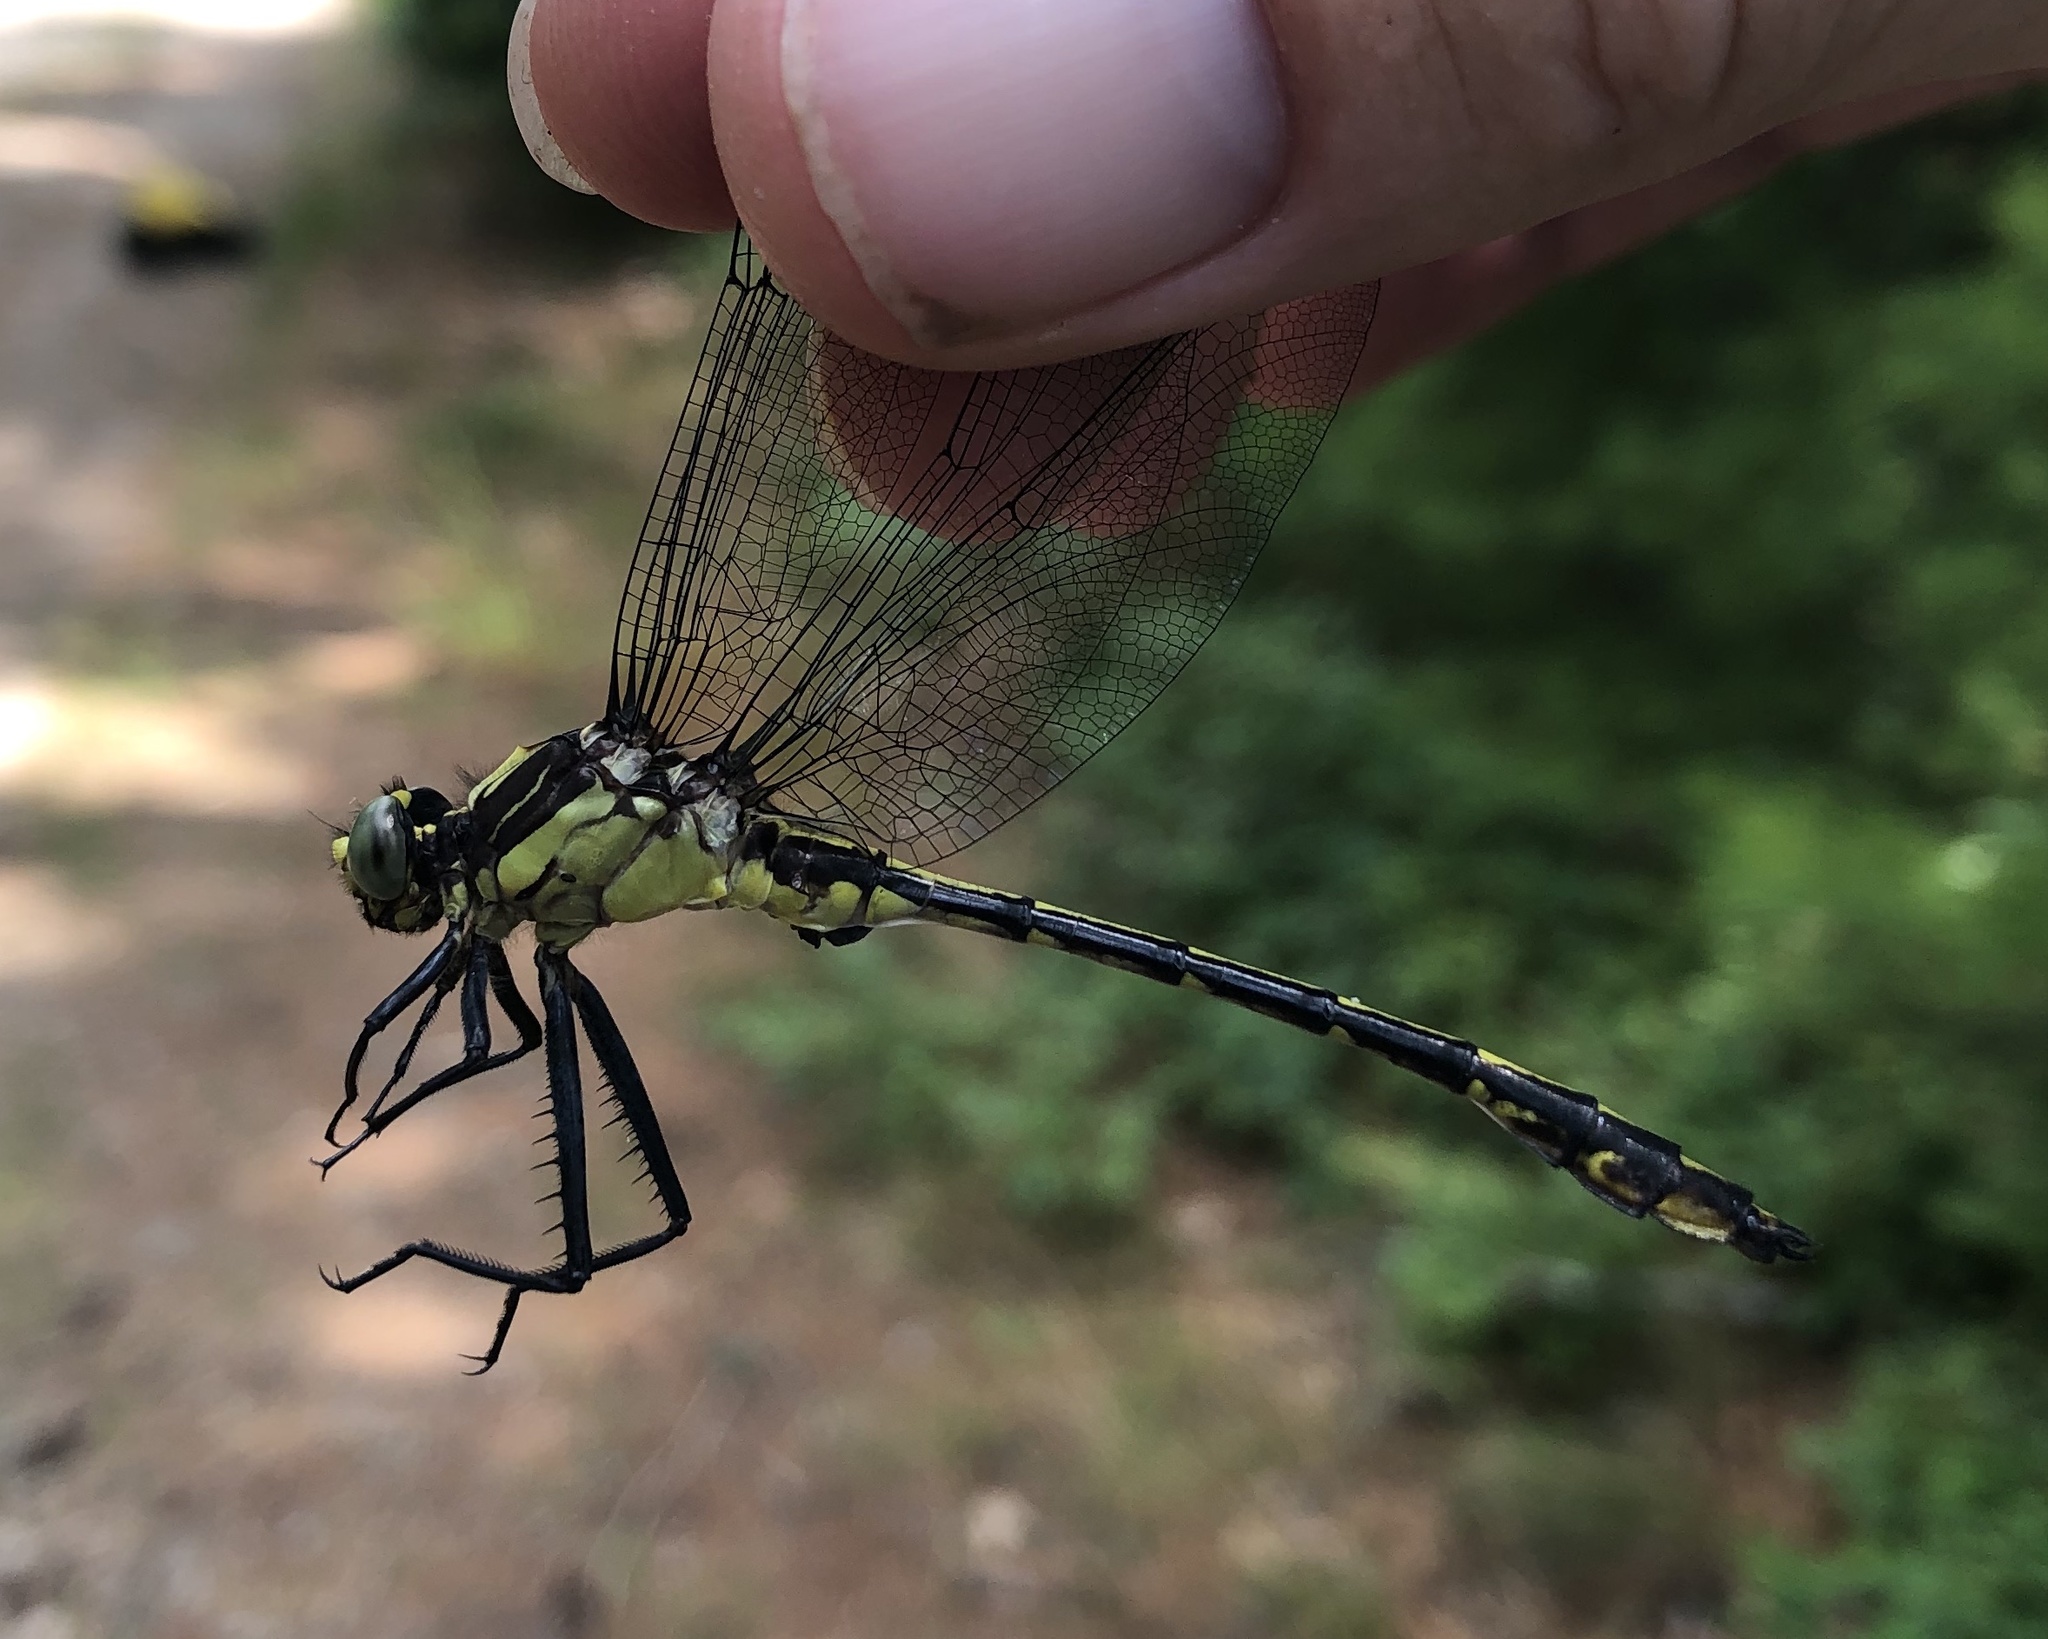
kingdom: Animalia
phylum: Arthropoda
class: Insecta
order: Odonata
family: Gomphidae
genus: Dromogomphus
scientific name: Dromogomphus spinosus
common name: Black-shouldered spinyleg
